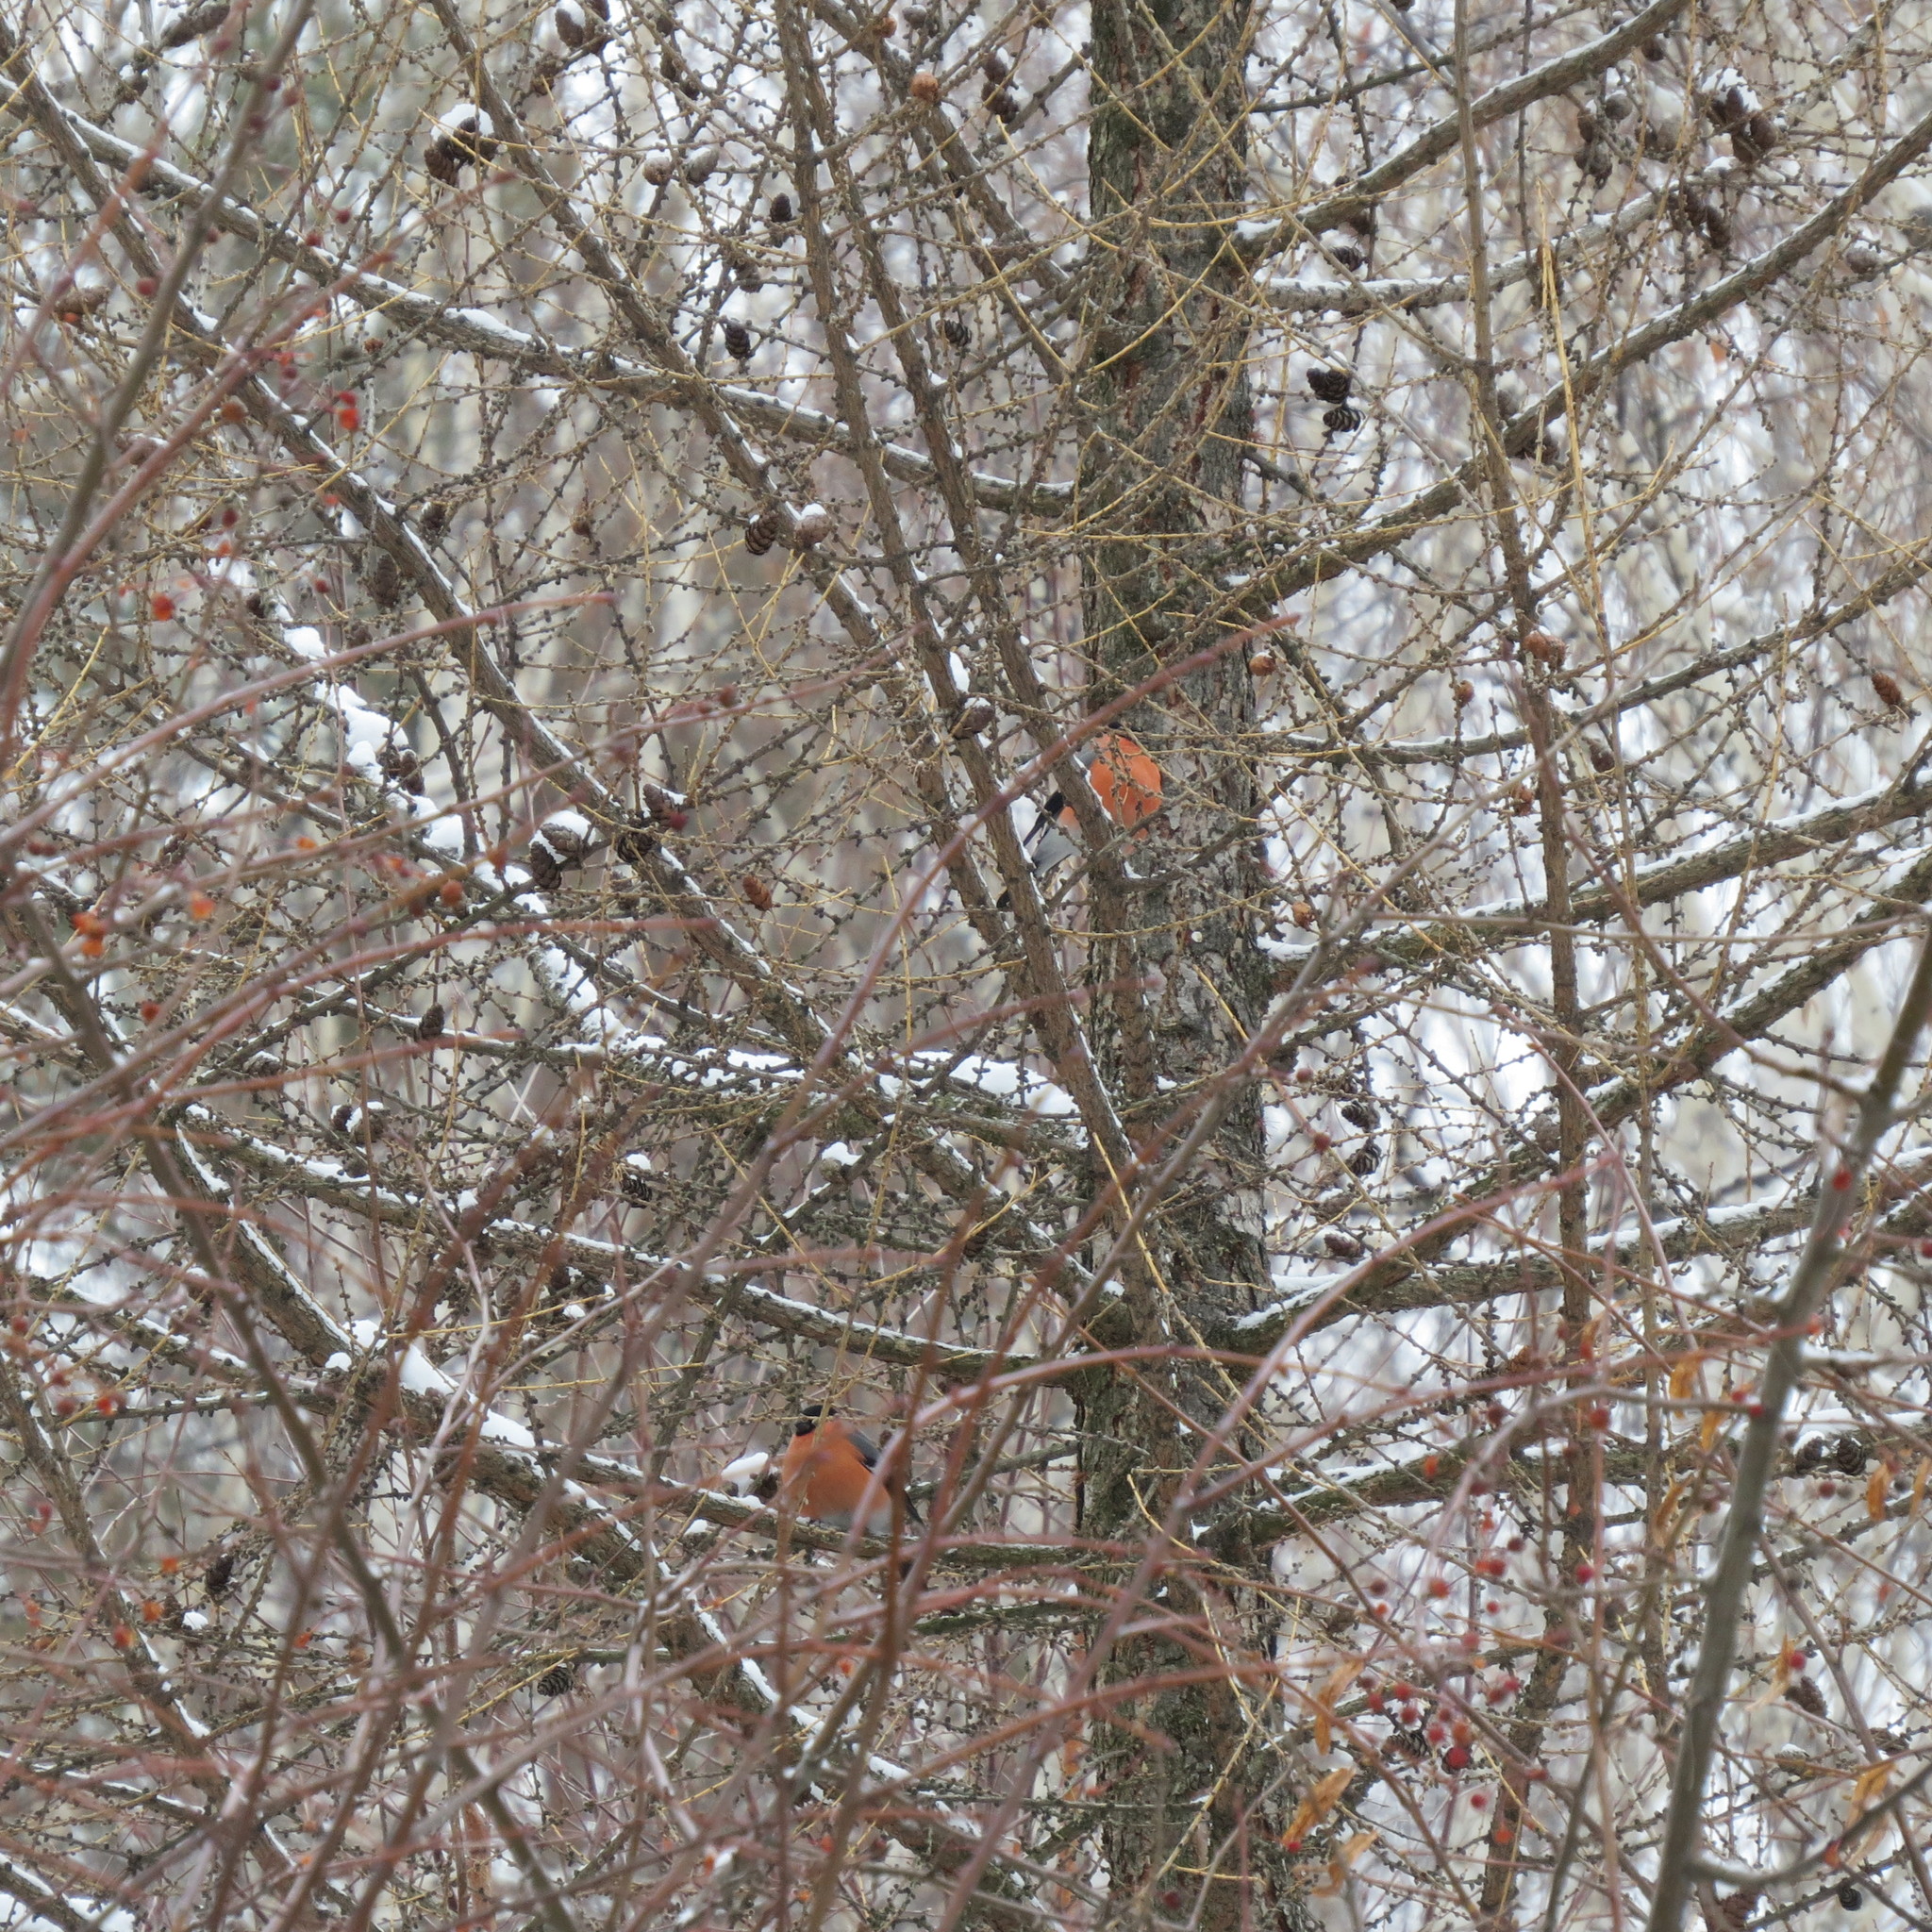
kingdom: Animalia
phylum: Chordata
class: Aves
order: Passeriformes
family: Fringillidae
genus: Pyrrhula
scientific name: Pyrrhula pyrrhula
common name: Eurasian bullfinch
